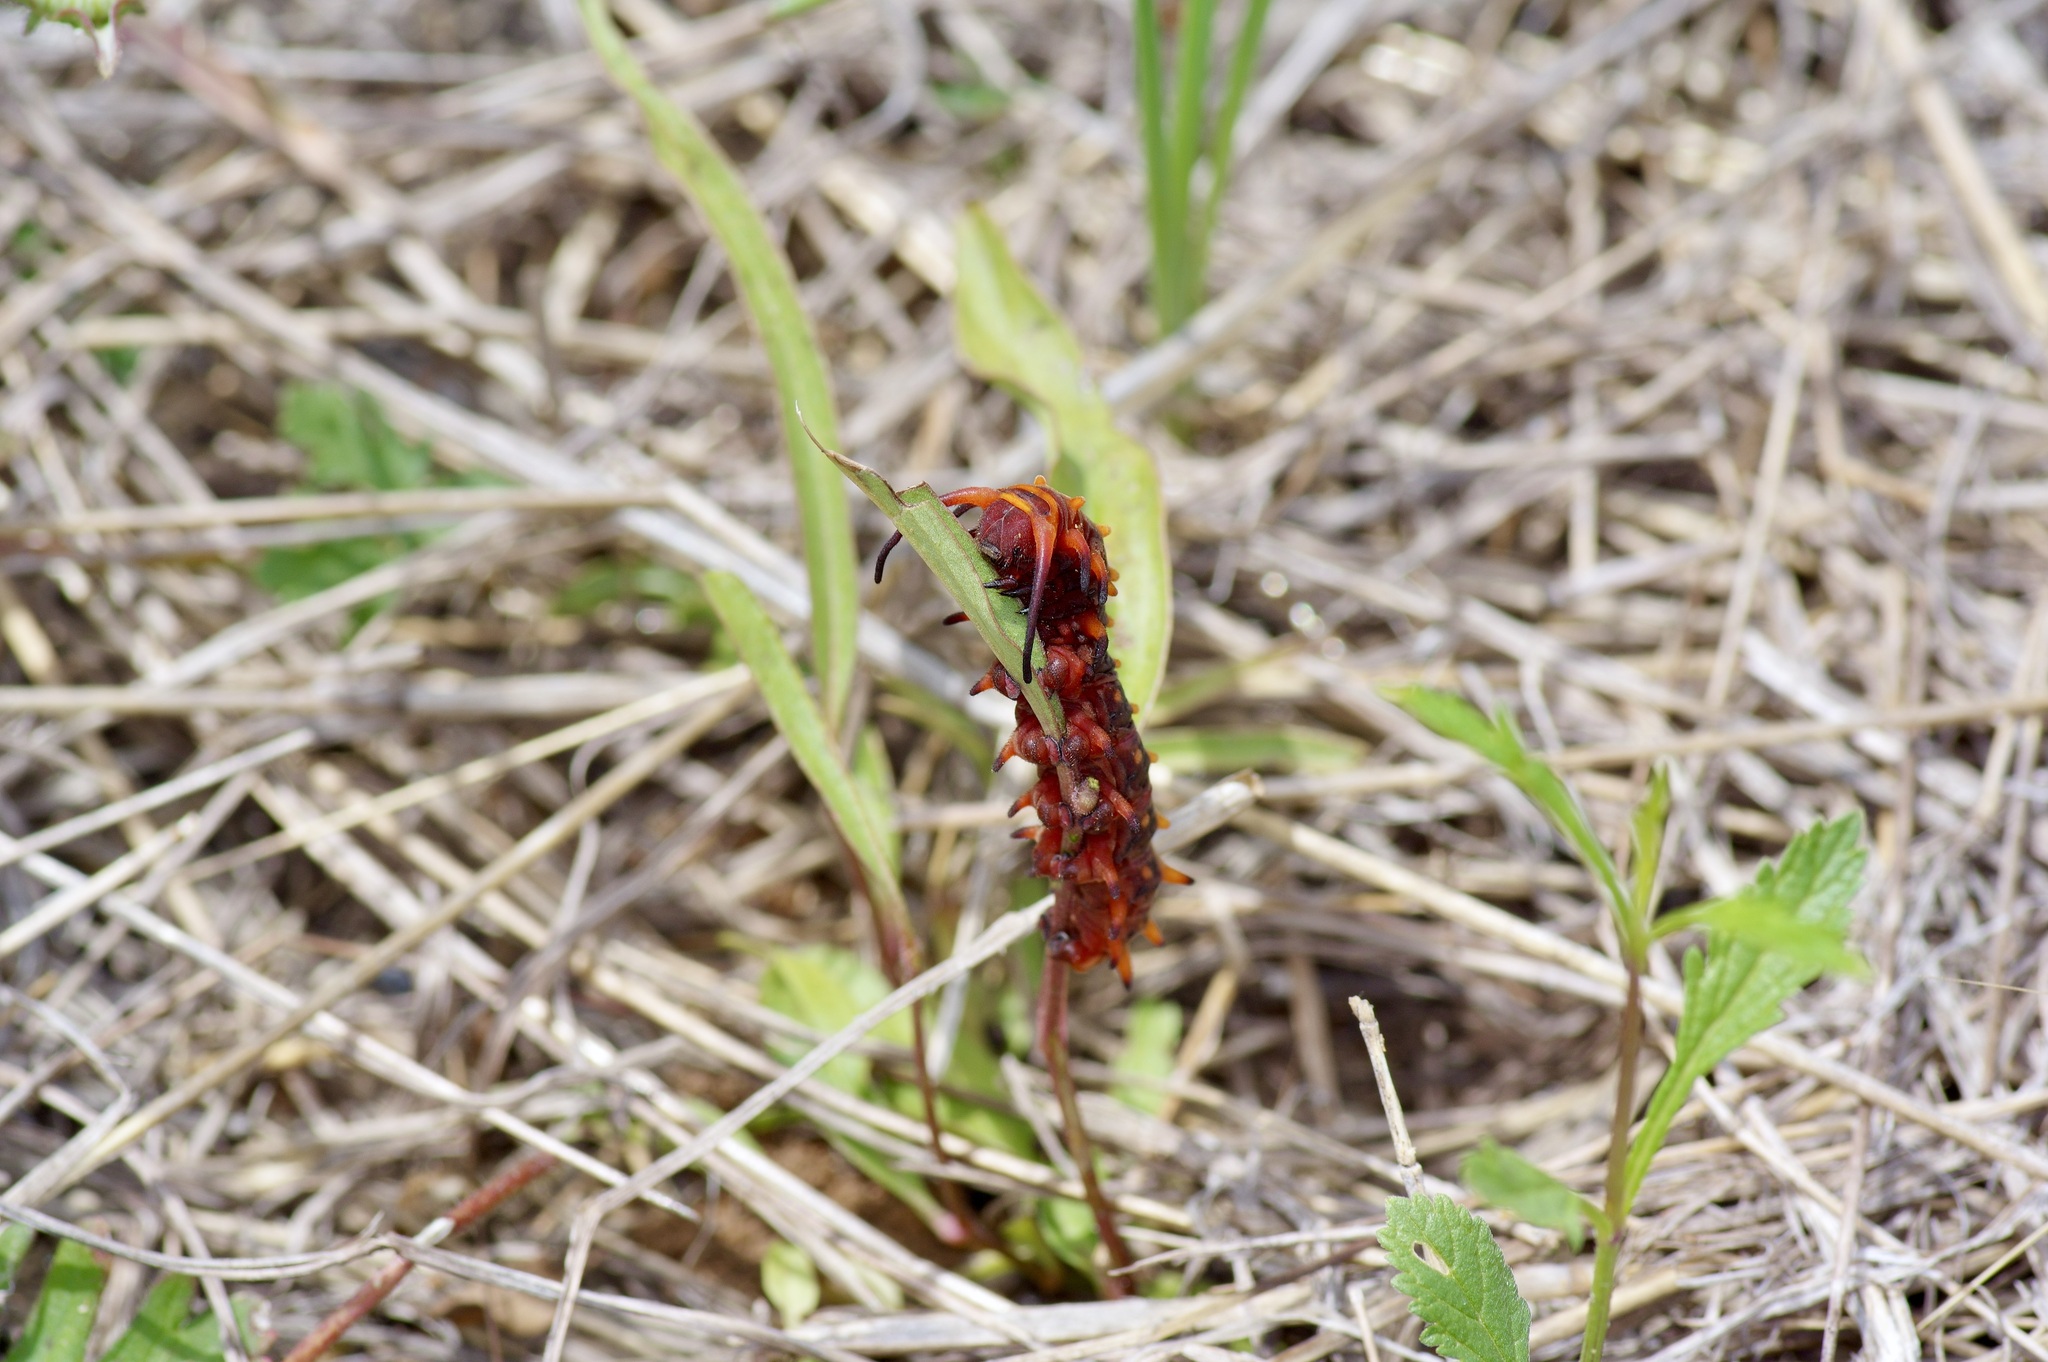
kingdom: Animalia
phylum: Arthropoda
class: Insecta
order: Lepidoptera
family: Papilionidae
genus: Battus
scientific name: Battus philenor
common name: Pipevine swallowtail
